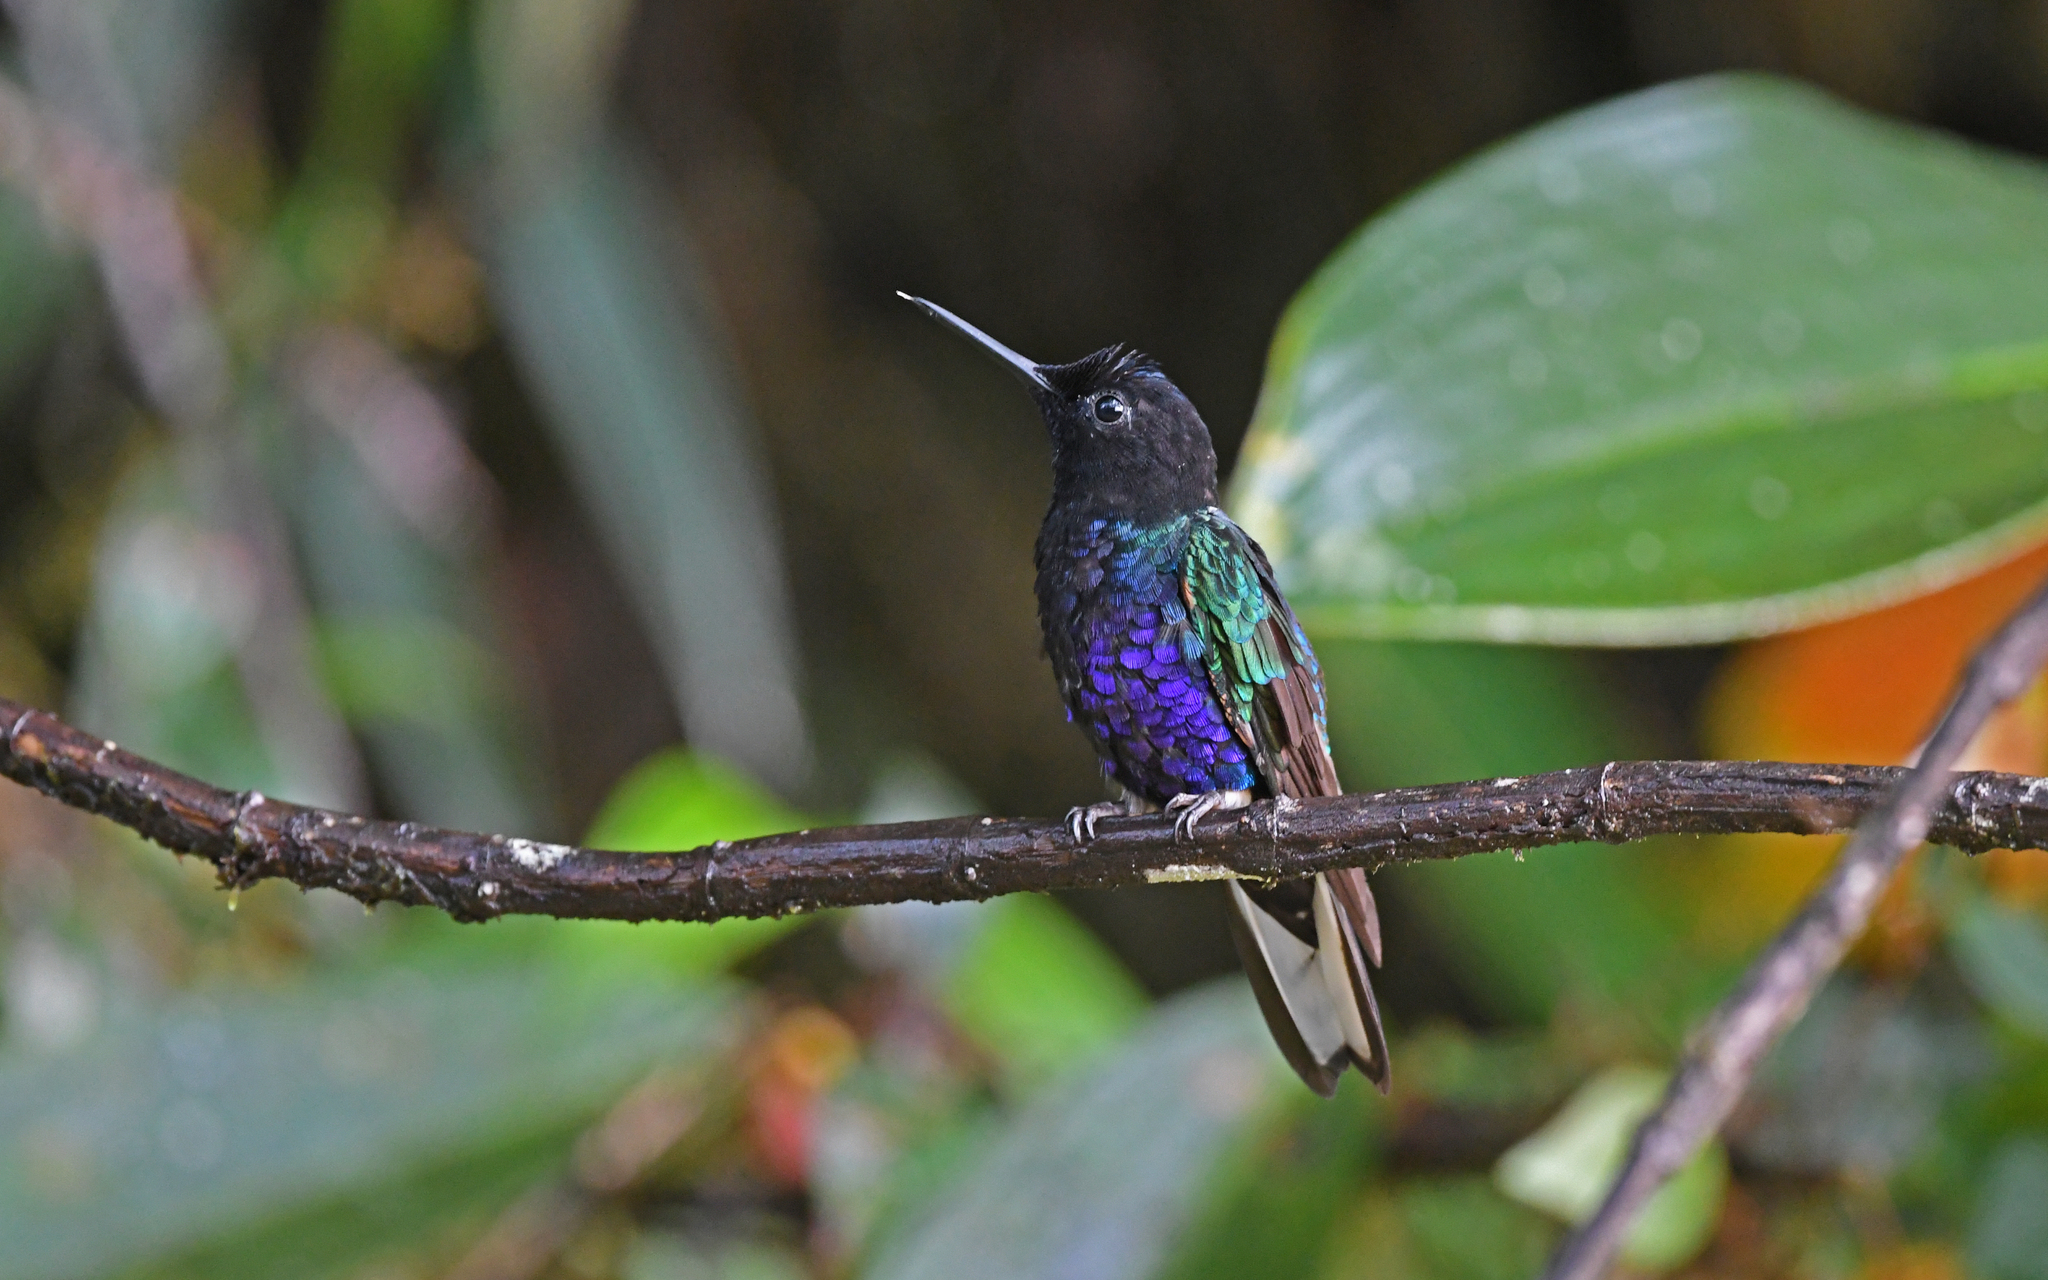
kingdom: Animalia
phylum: Chordata
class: Aves
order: Apodiformes
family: Trochilidae
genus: Boissonneaua
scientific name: Boissonneaua jardini
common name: Velvet-purple coronet
